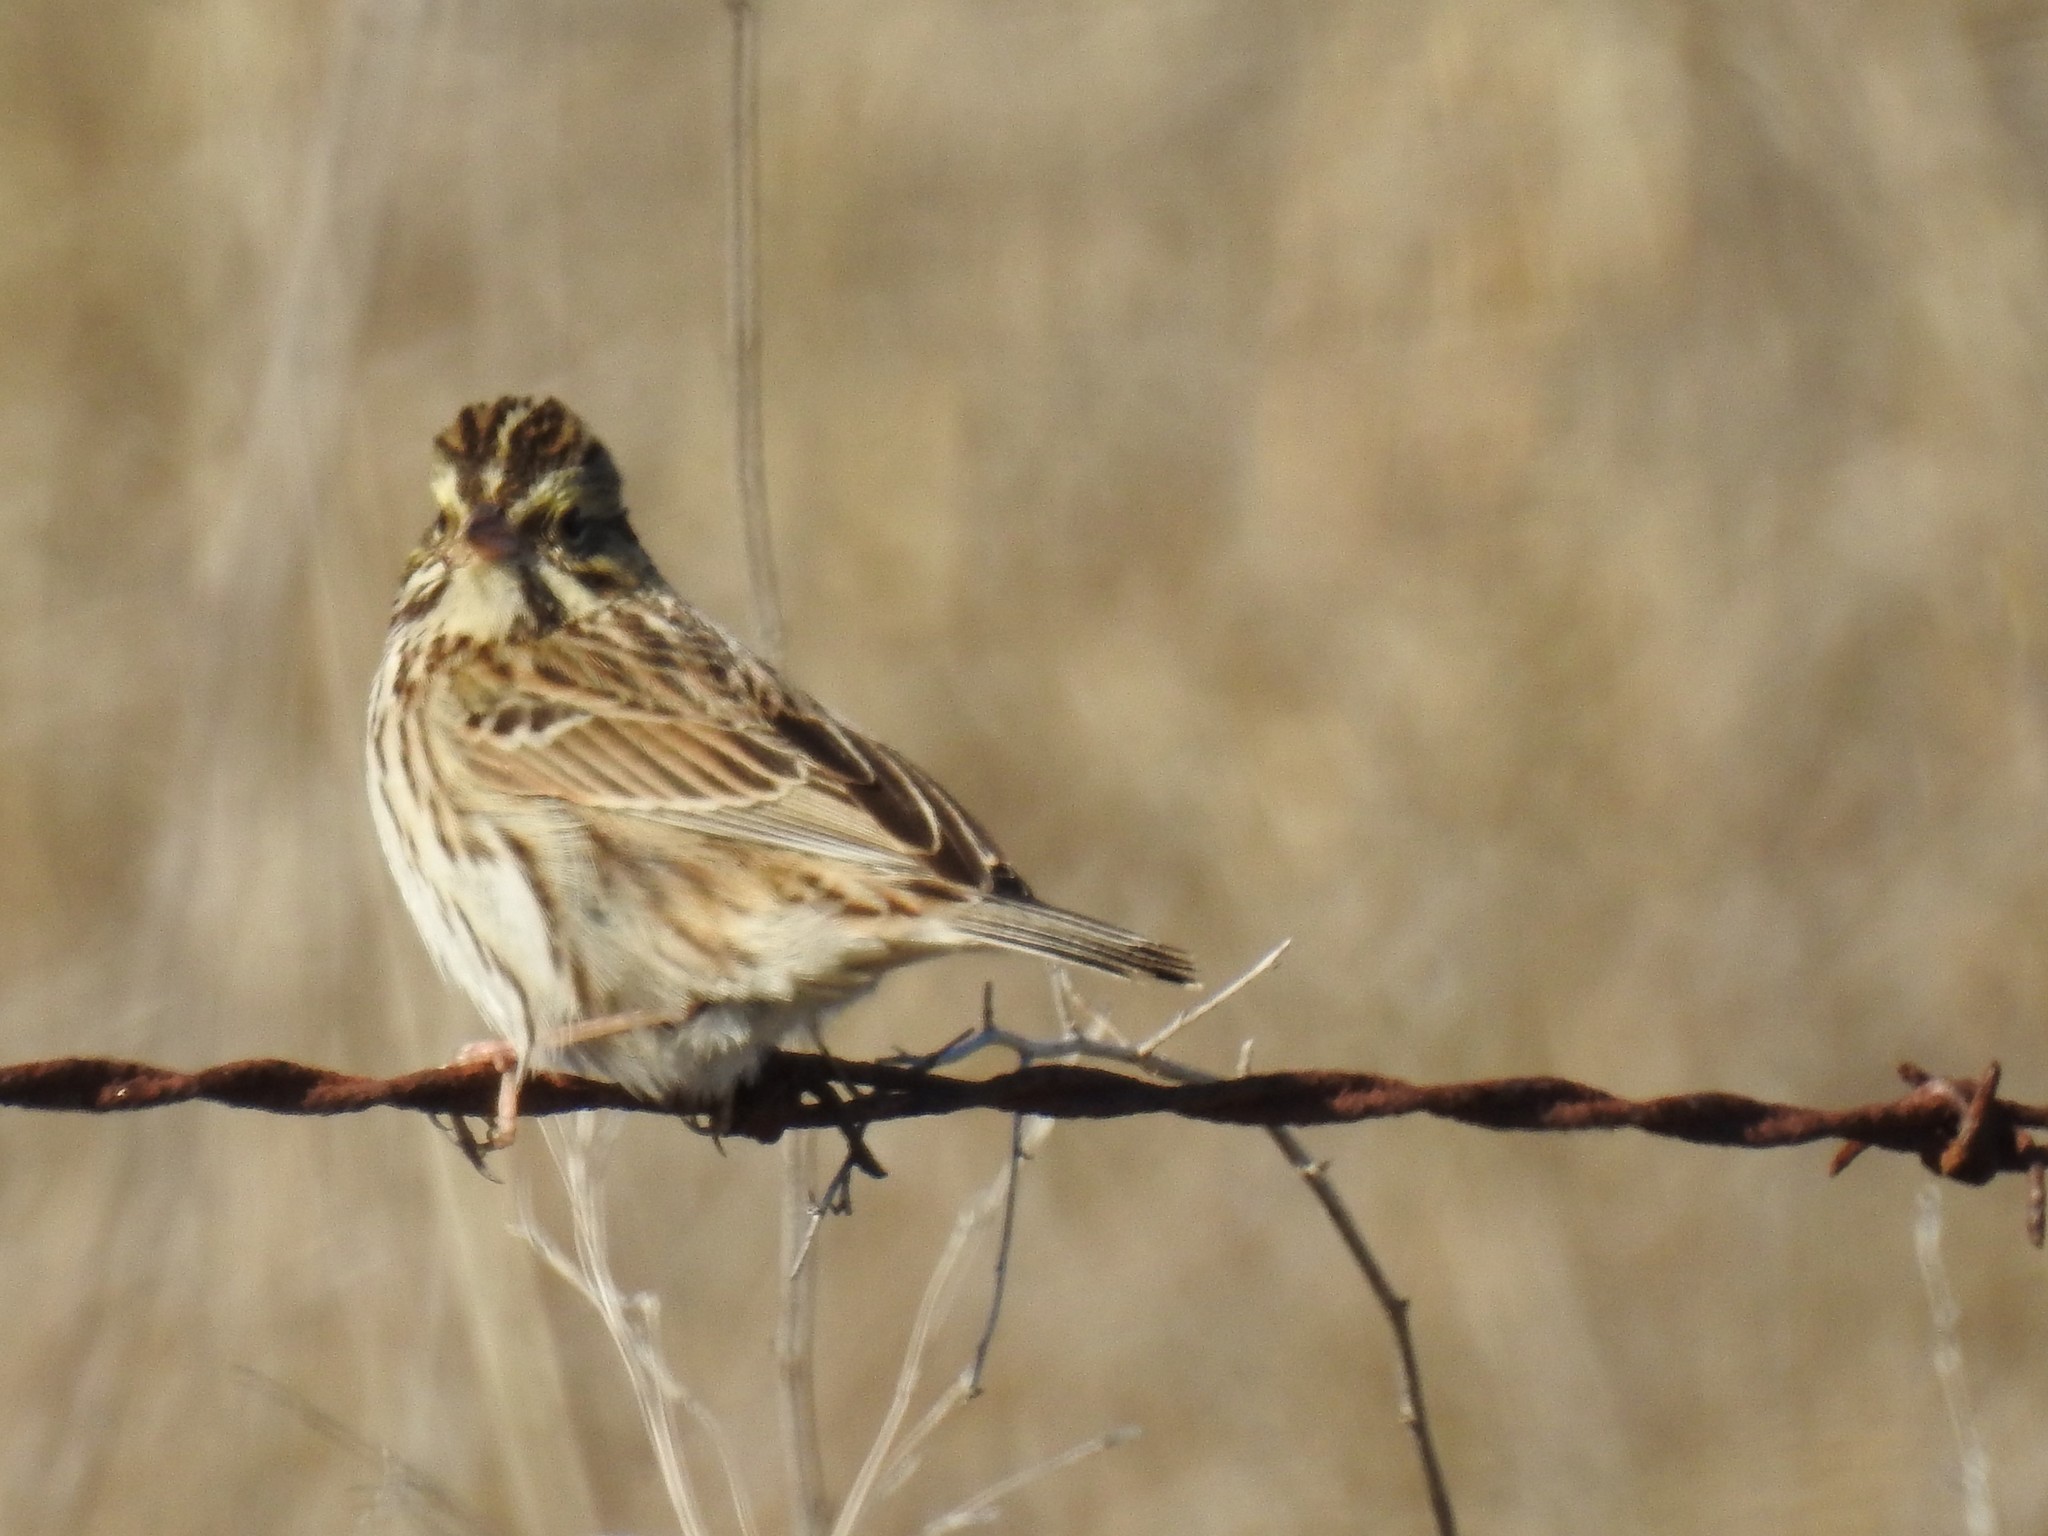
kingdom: Animalia
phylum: Chordata
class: Aves
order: Passeriformes
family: Passerellidae
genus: Passerculus
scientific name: Passerculus sandwichensis
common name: Savannah sparrow
